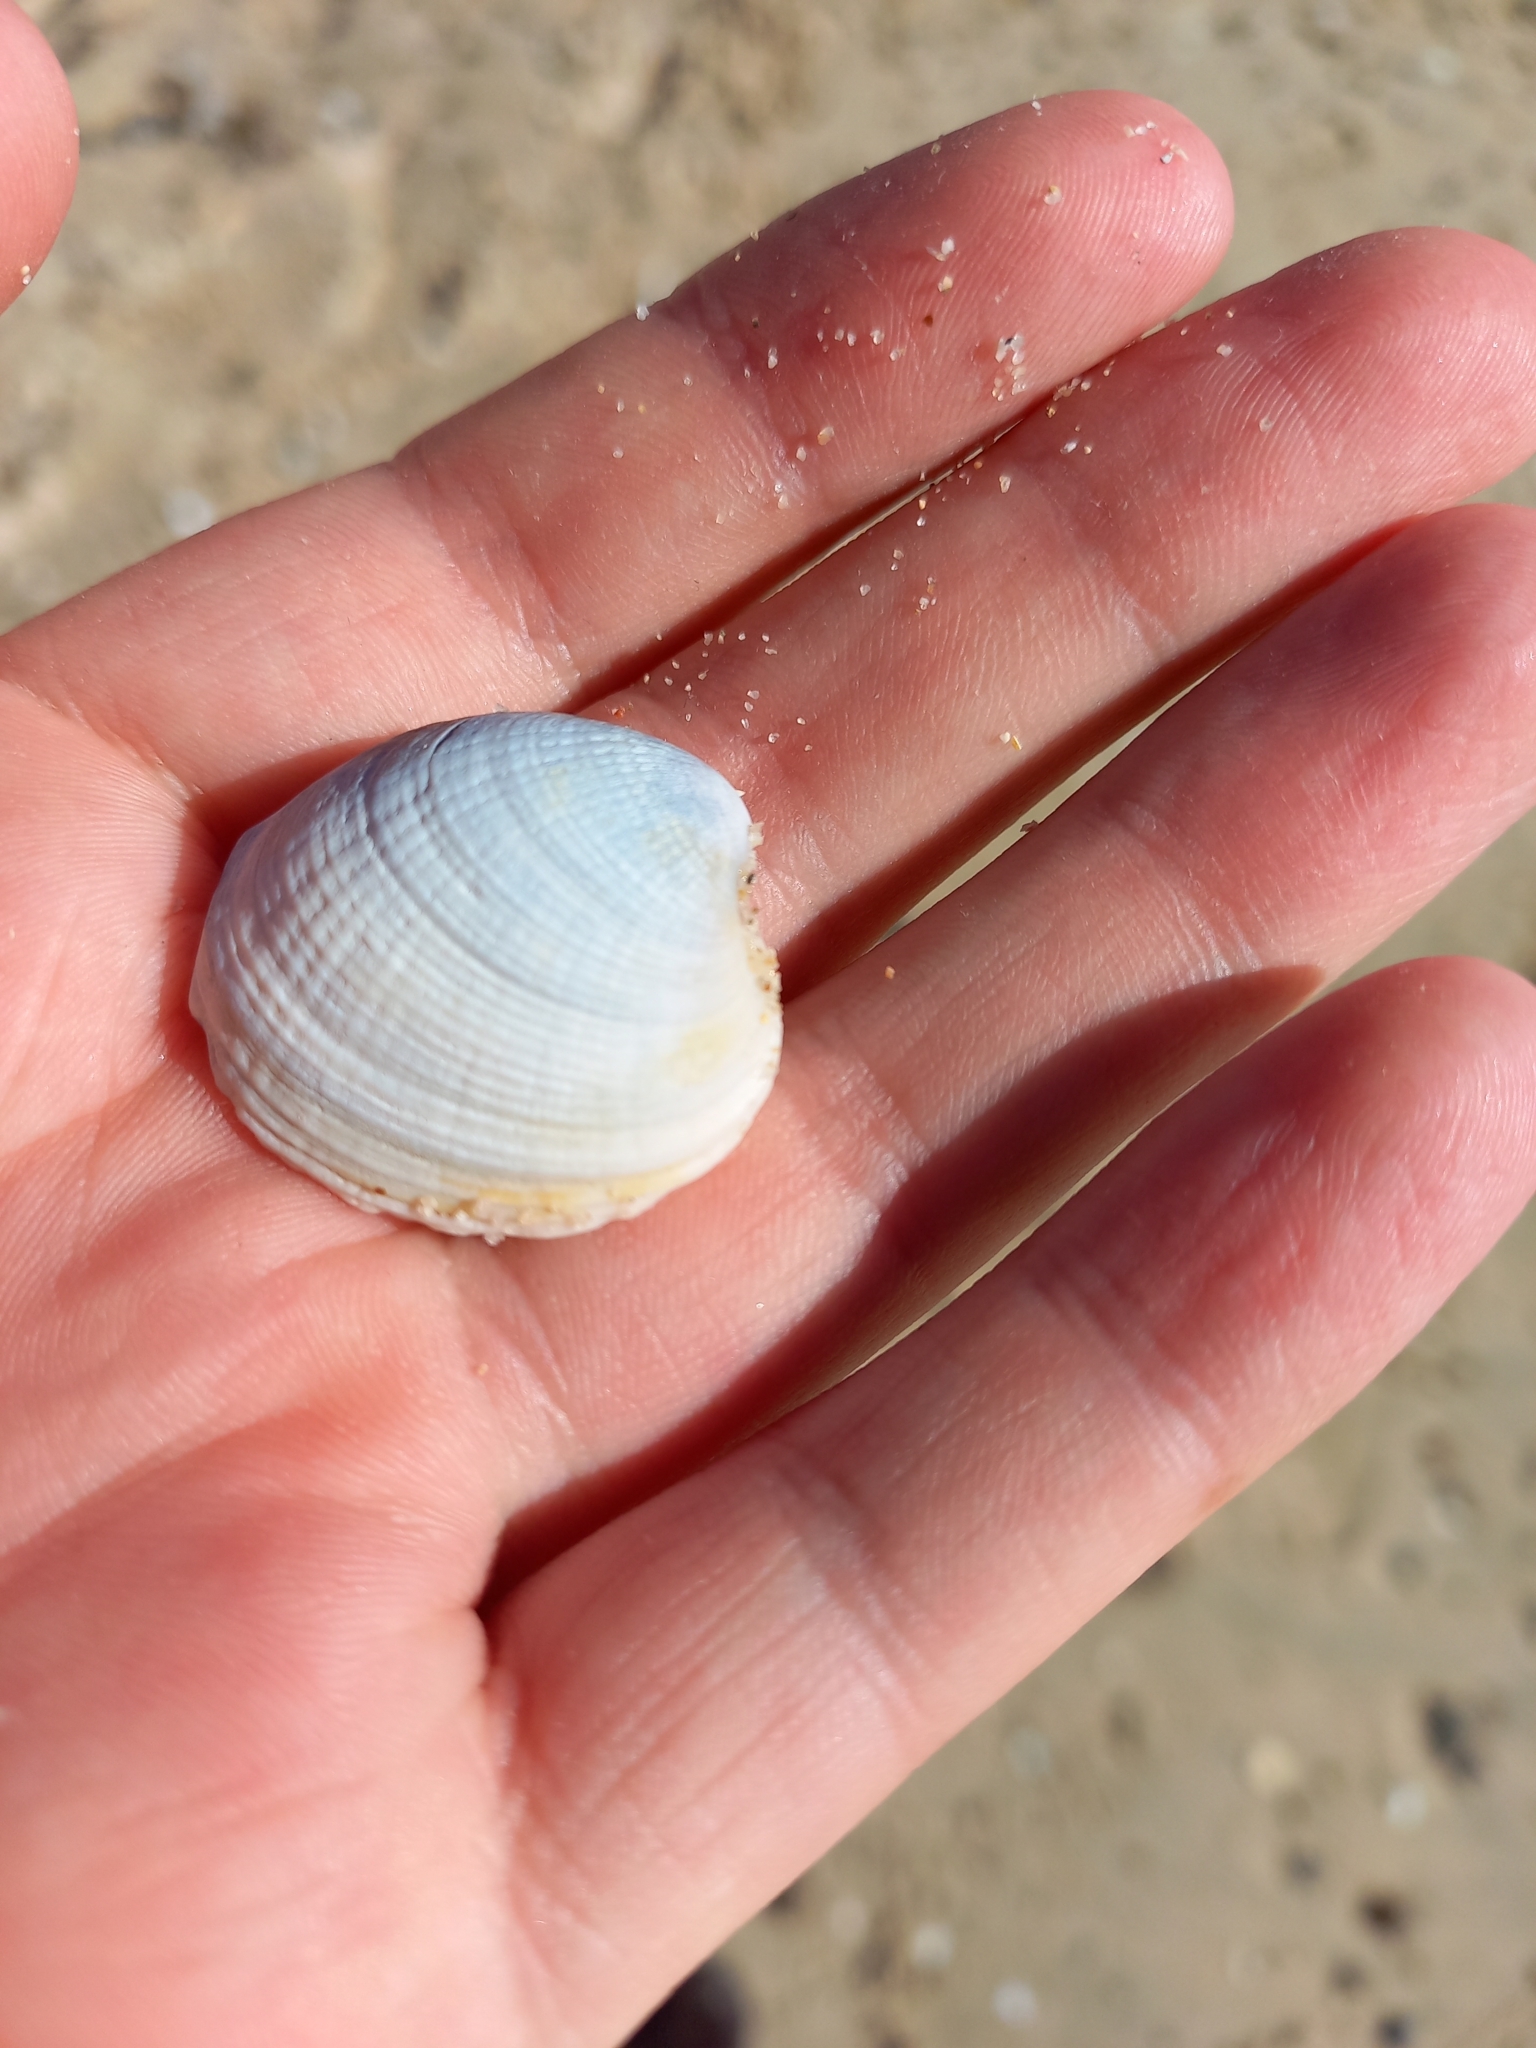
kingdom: Animalia
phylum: Mollusca
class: Bivalvia
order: Venerida
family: Veneridae
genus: Austrovenus
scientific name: Austrovenus stutchburyi
